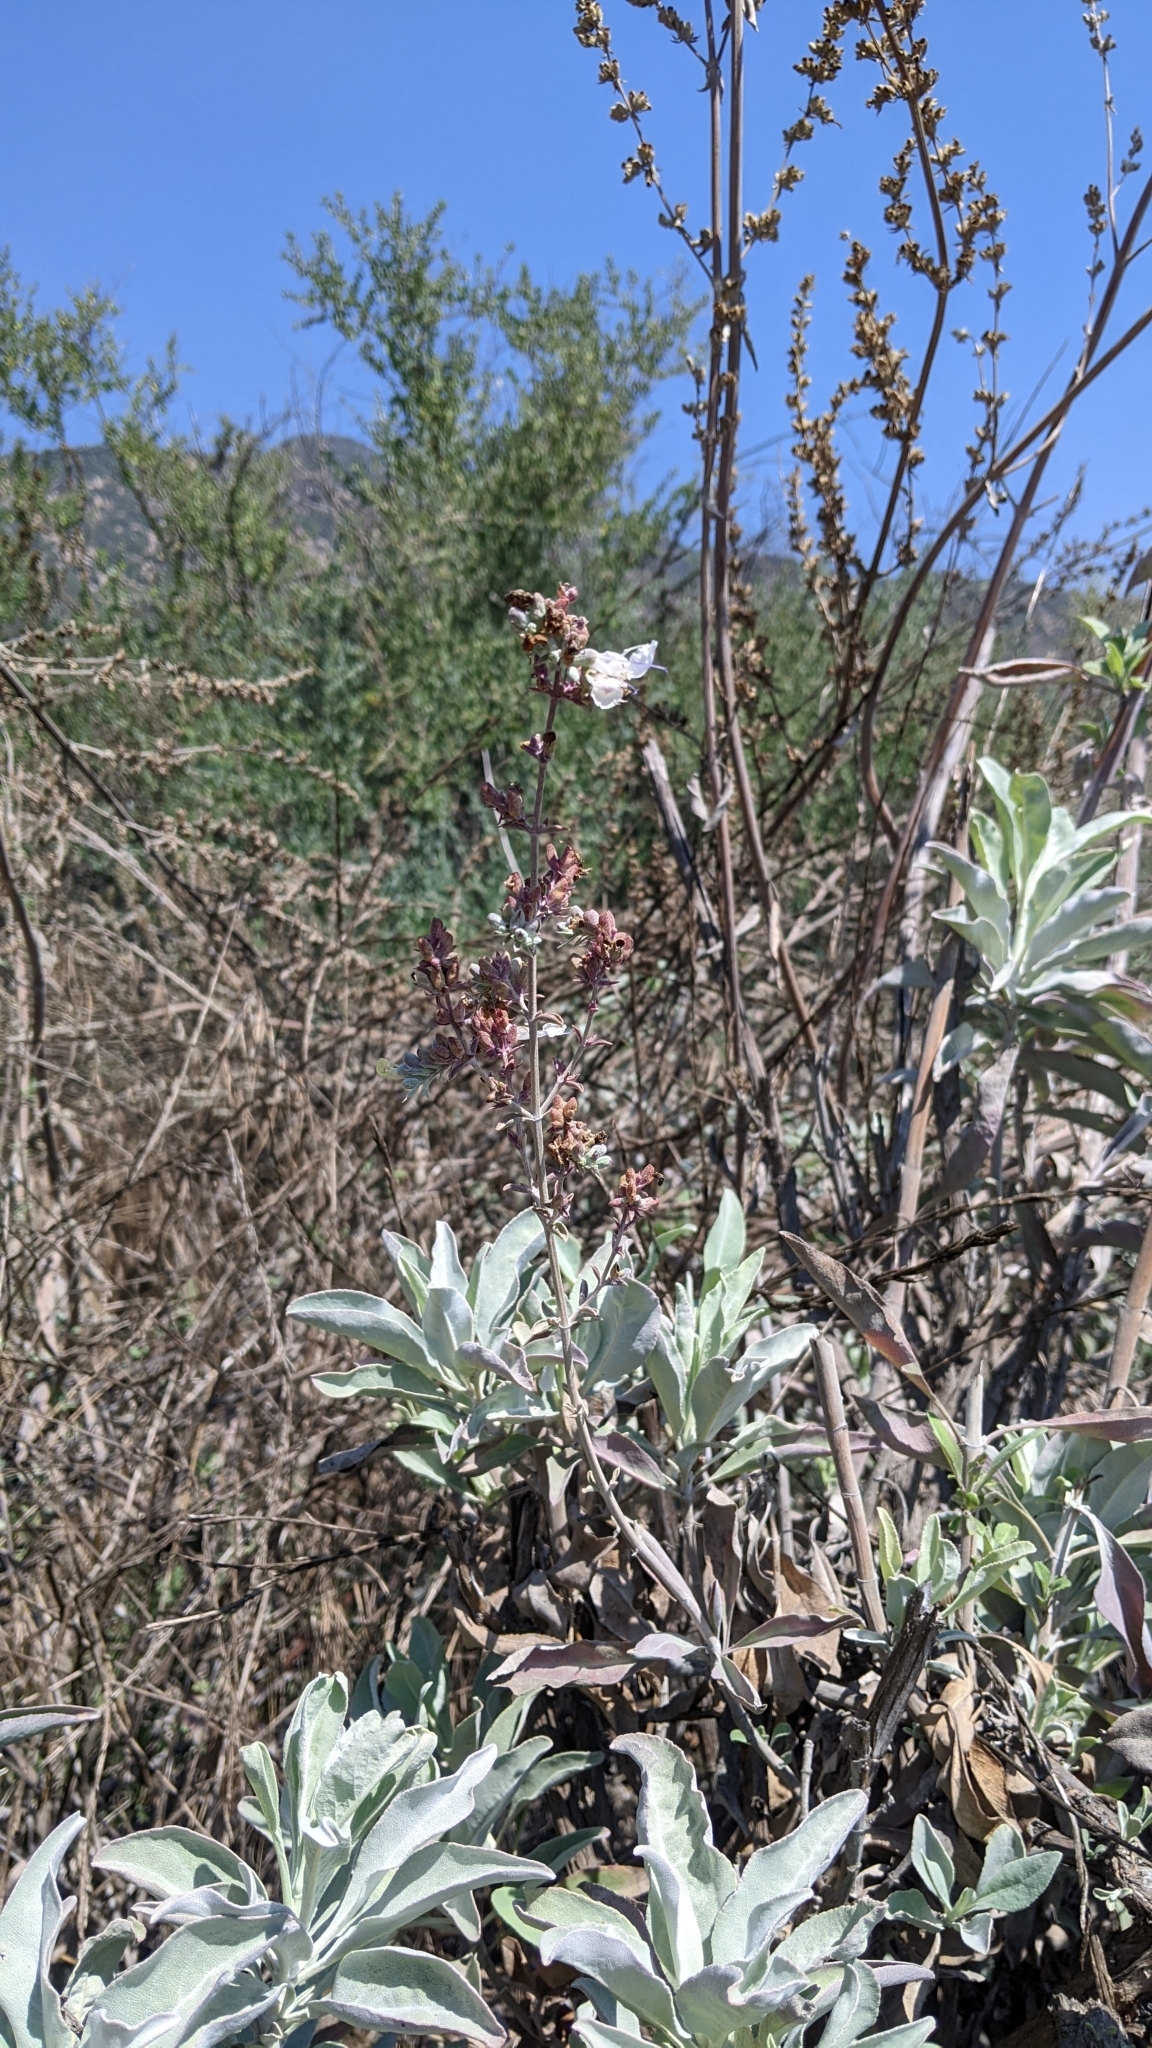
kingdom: Plantae
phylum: Tracheophyta
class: Magnoliopsida
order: Lamiales
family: Lamiaceae
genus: Salvia
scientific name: Salvia apiana
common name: White sage
